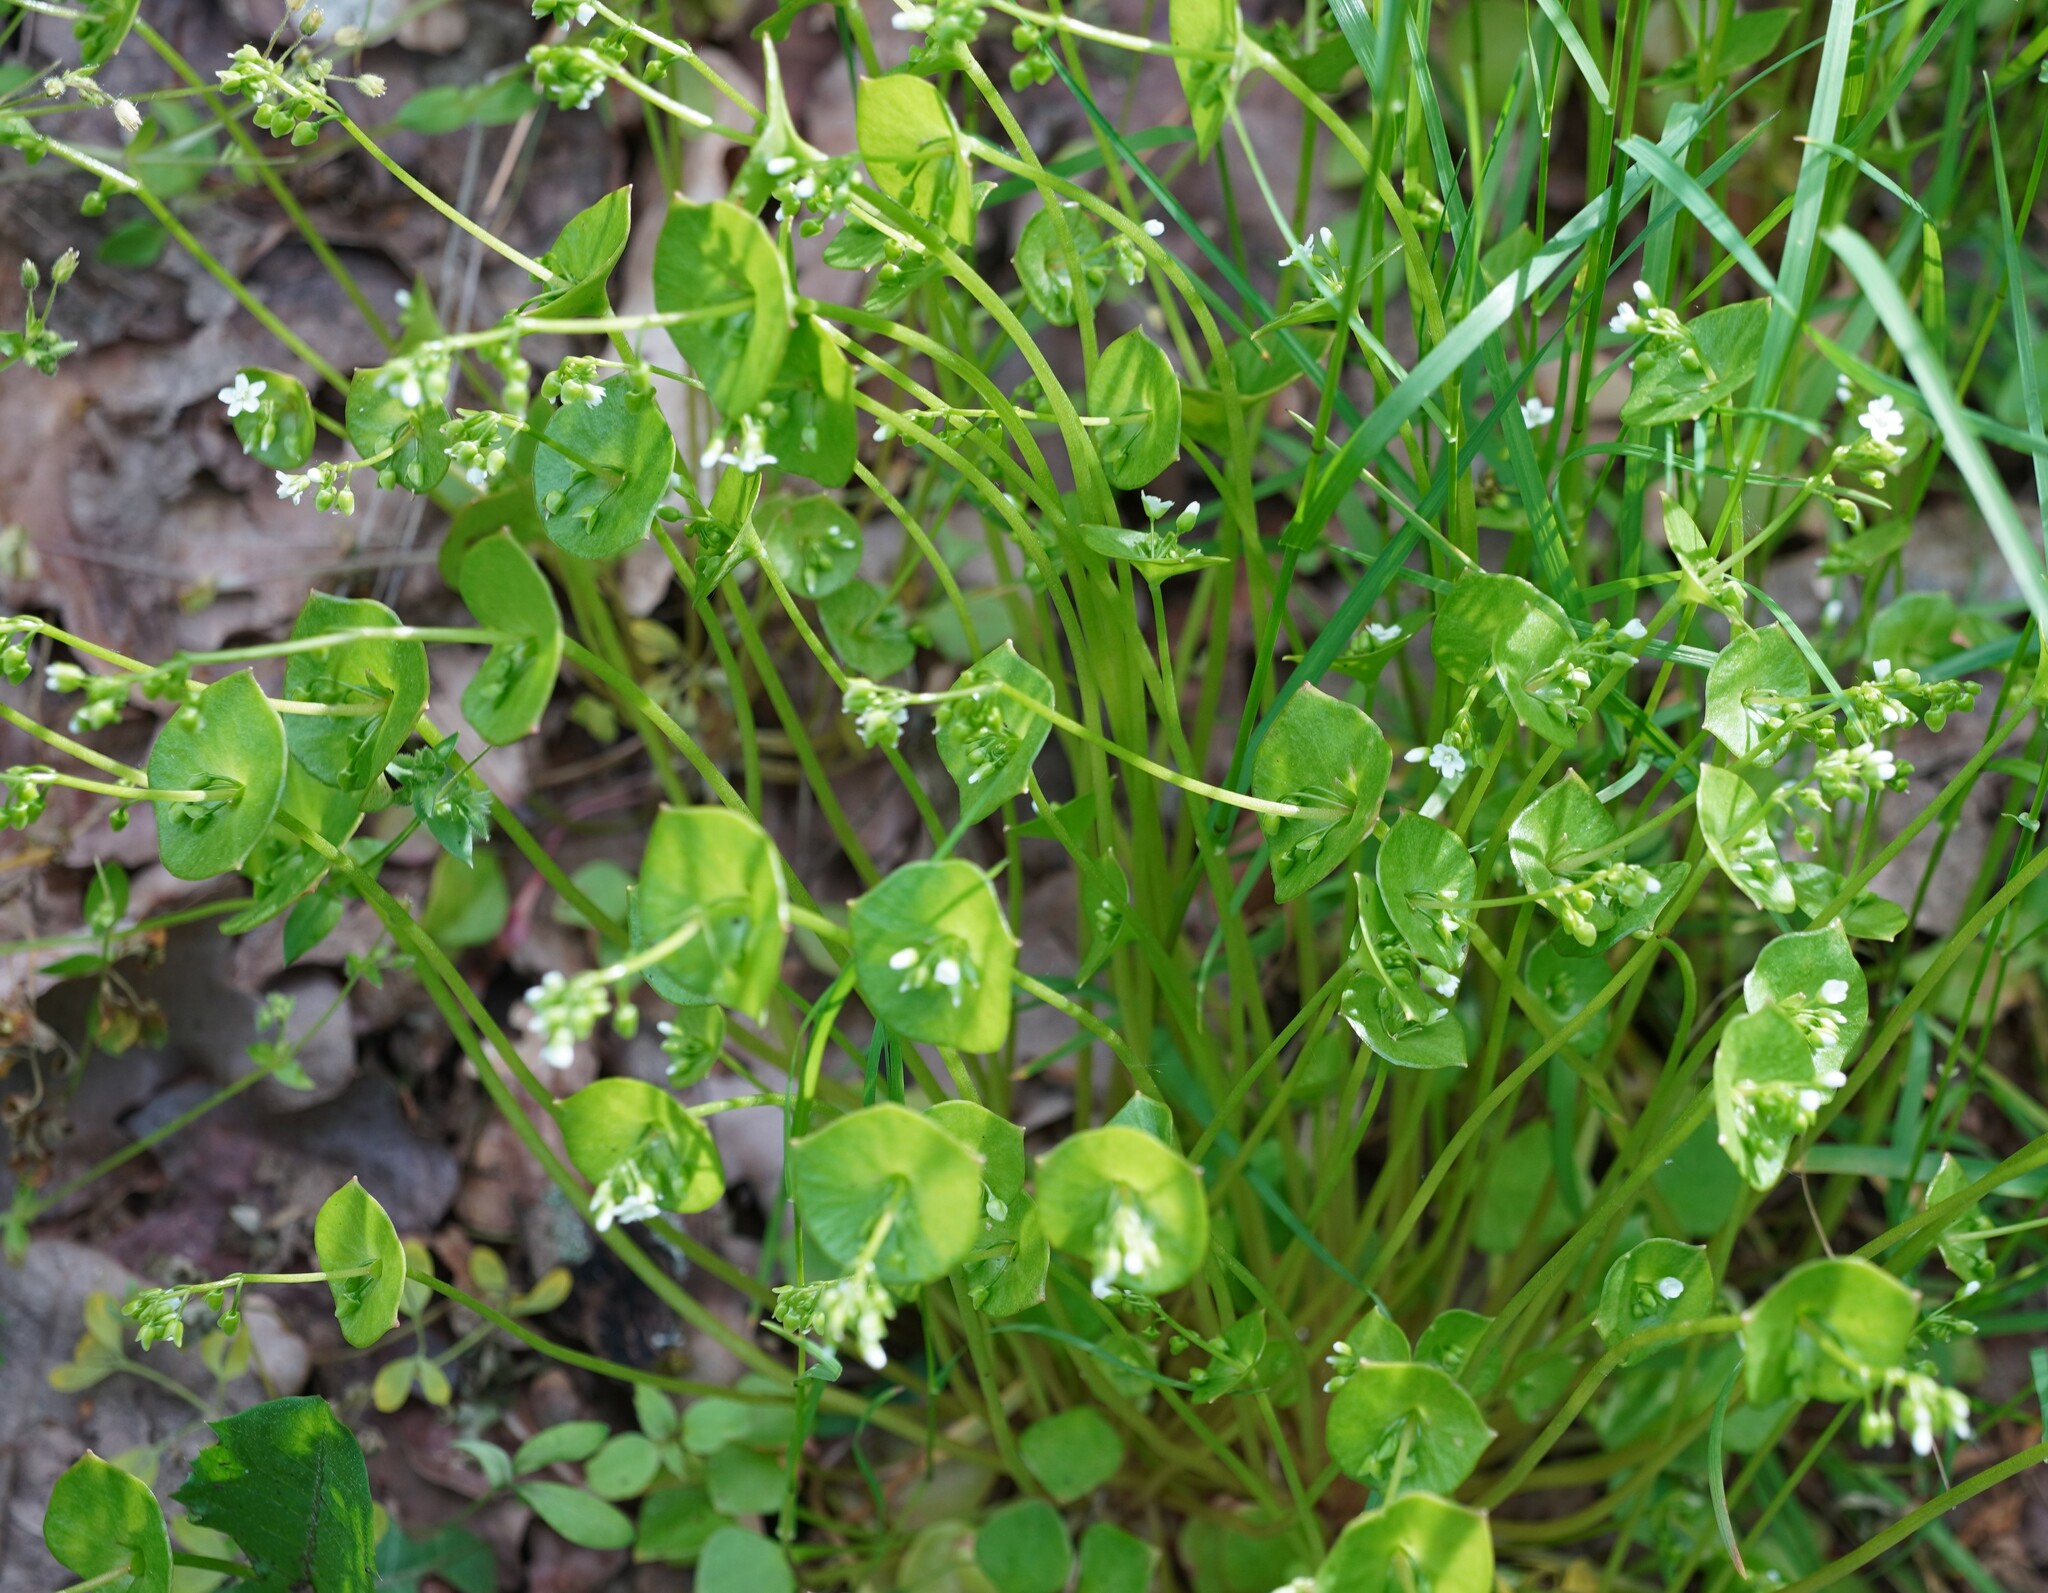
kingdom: Plantae
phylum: Tracheophyta
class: Magnoliopsida
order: Caryophyllales
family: Montiaceae
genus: Claytonia
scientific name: Claytonia perfoliata
